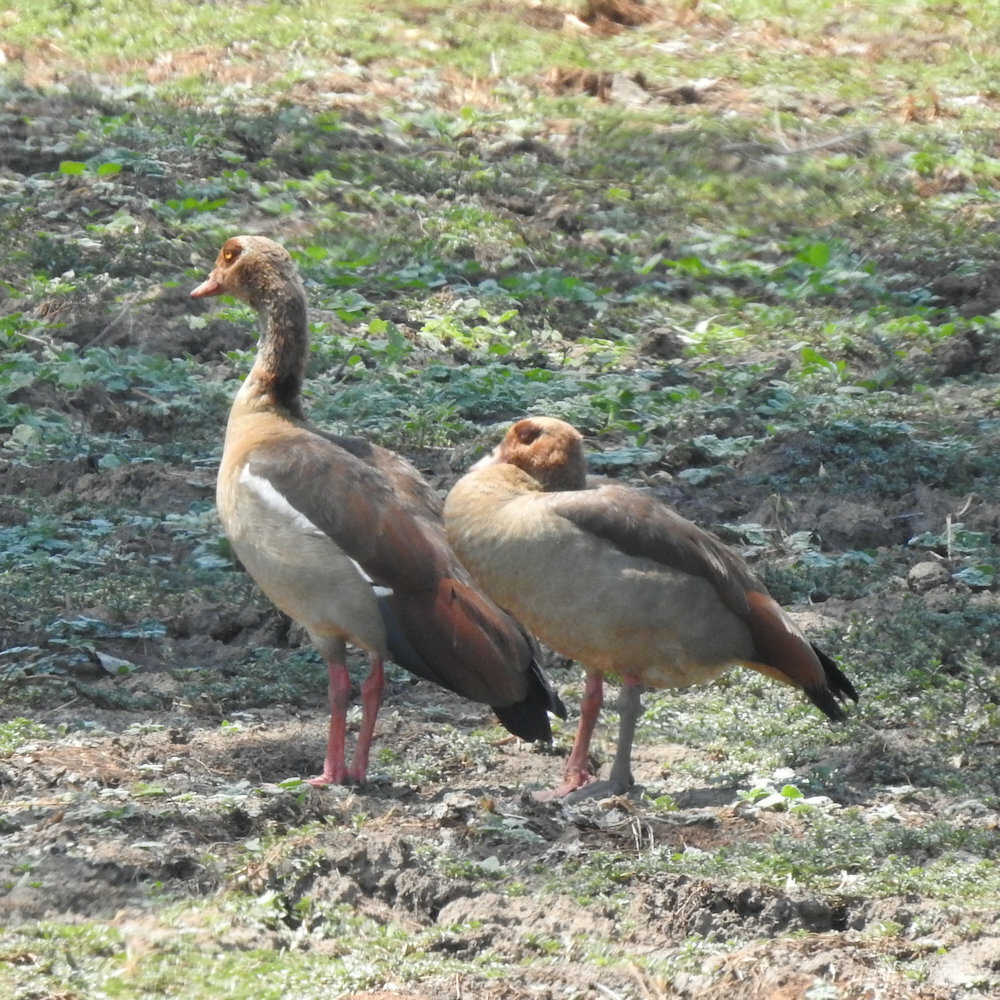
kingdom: Animalia
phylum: Chordata
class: Aves
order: Anseriformes
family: Anatidae
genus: Alopochen
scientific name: Alopochen aegyptiaca
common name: Egyptian goose
